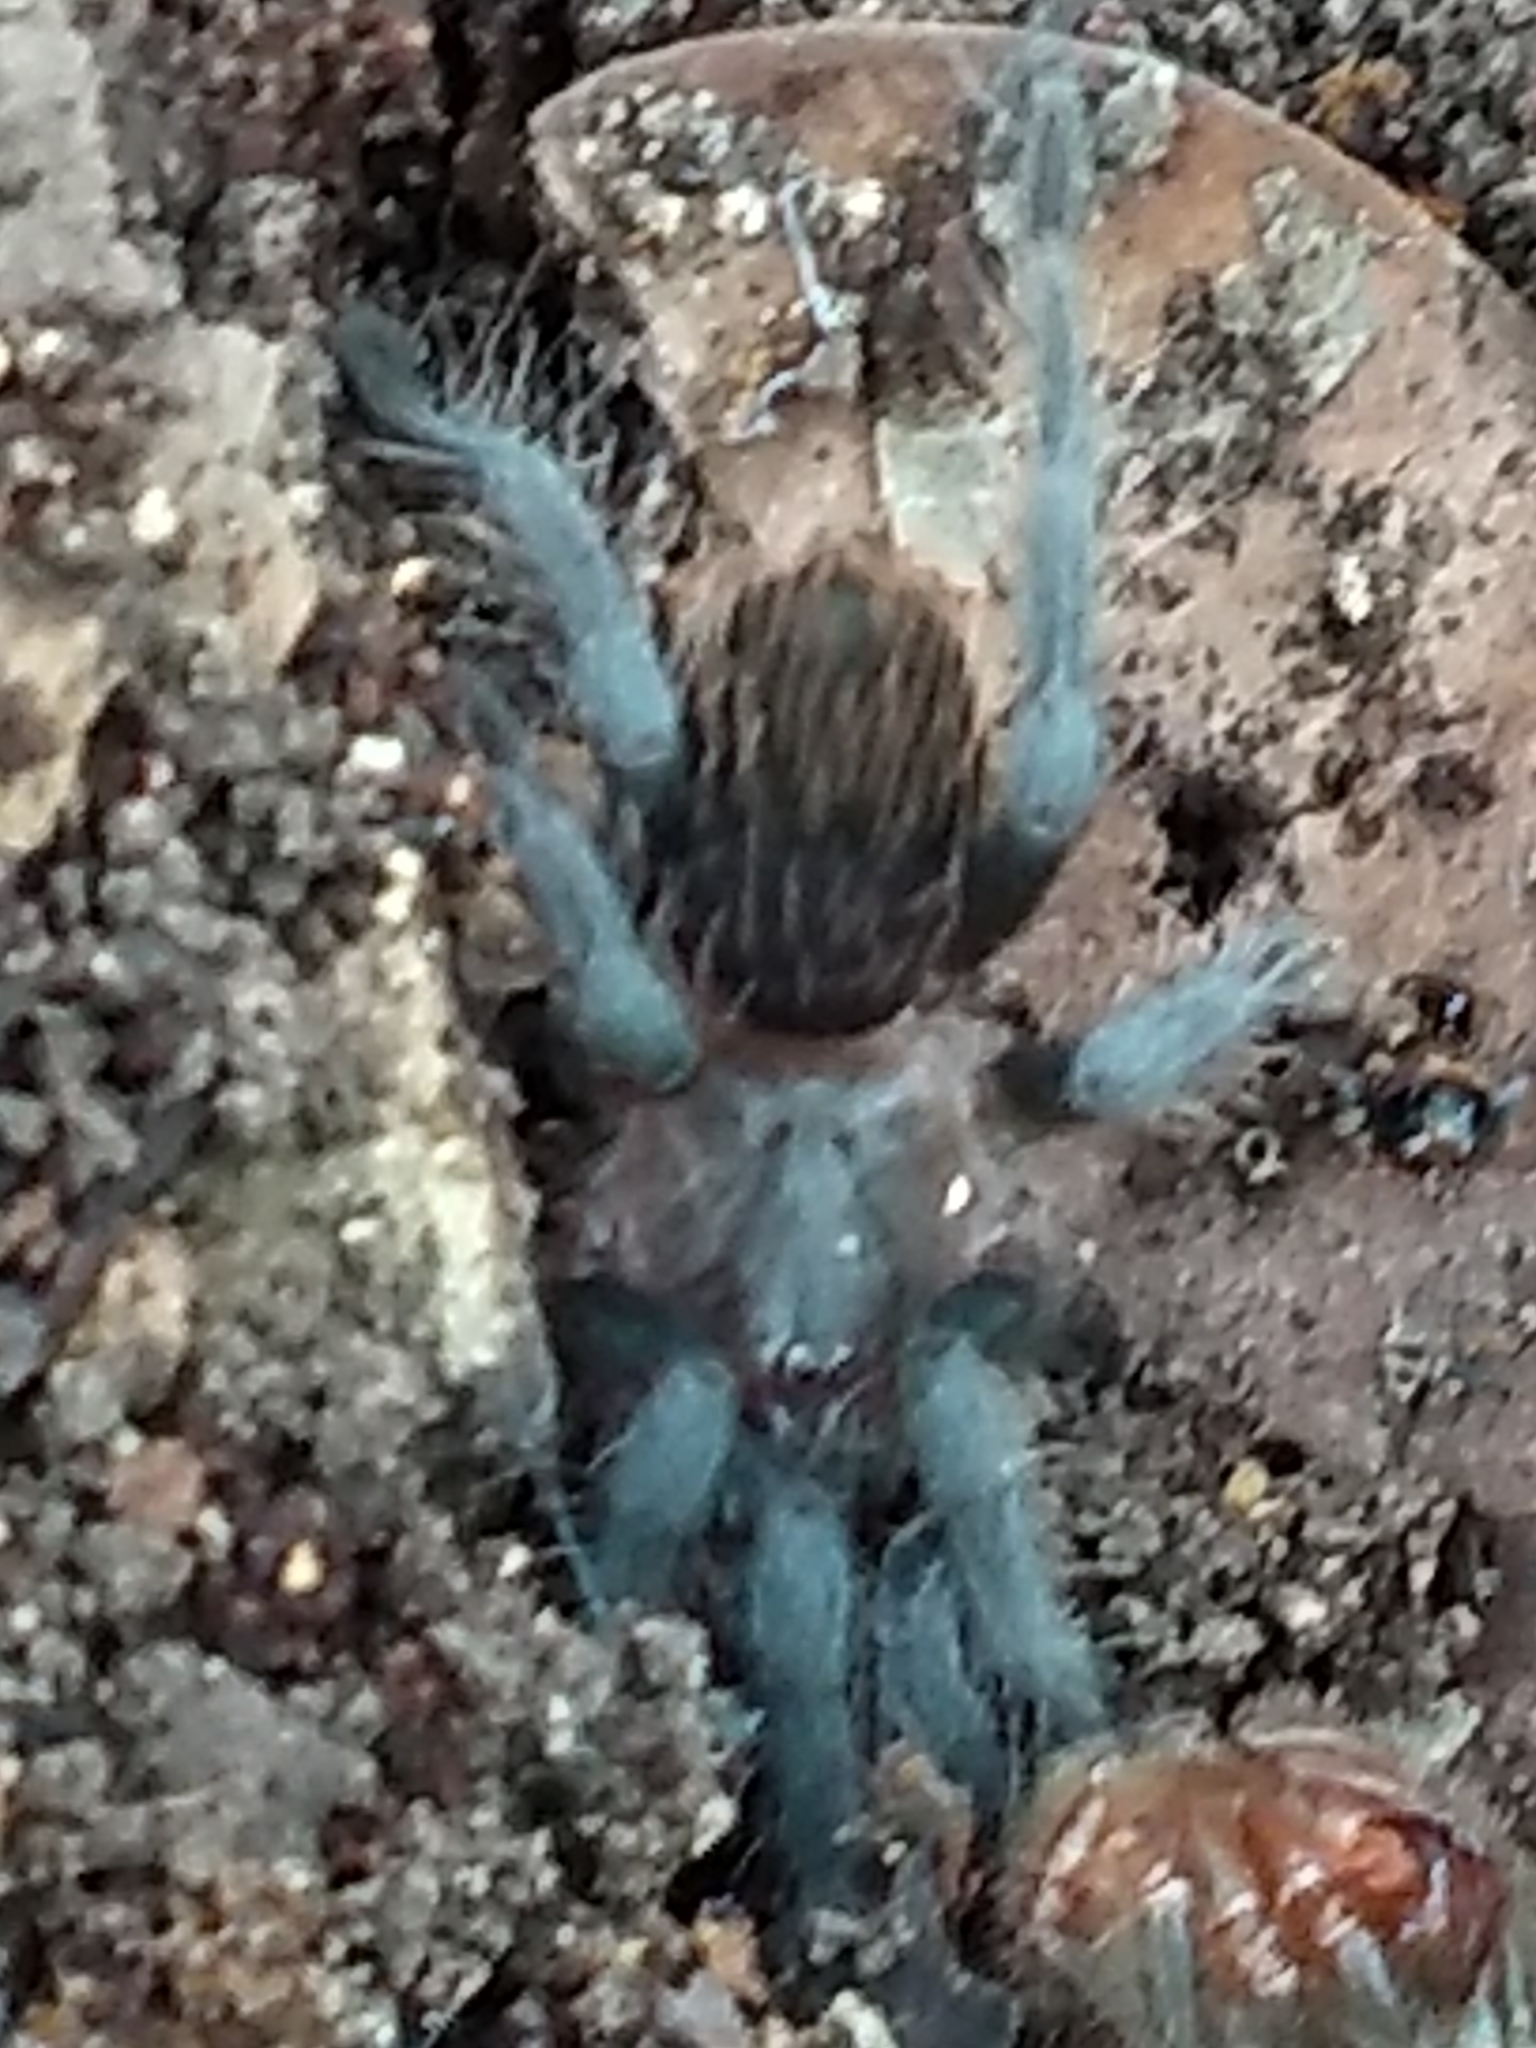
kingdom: Animalia
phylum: Arthropoda
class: Arachnida
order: Araneae
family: Theraphosidae
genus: Tliltocatl
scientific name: Tliltocatl vagans
